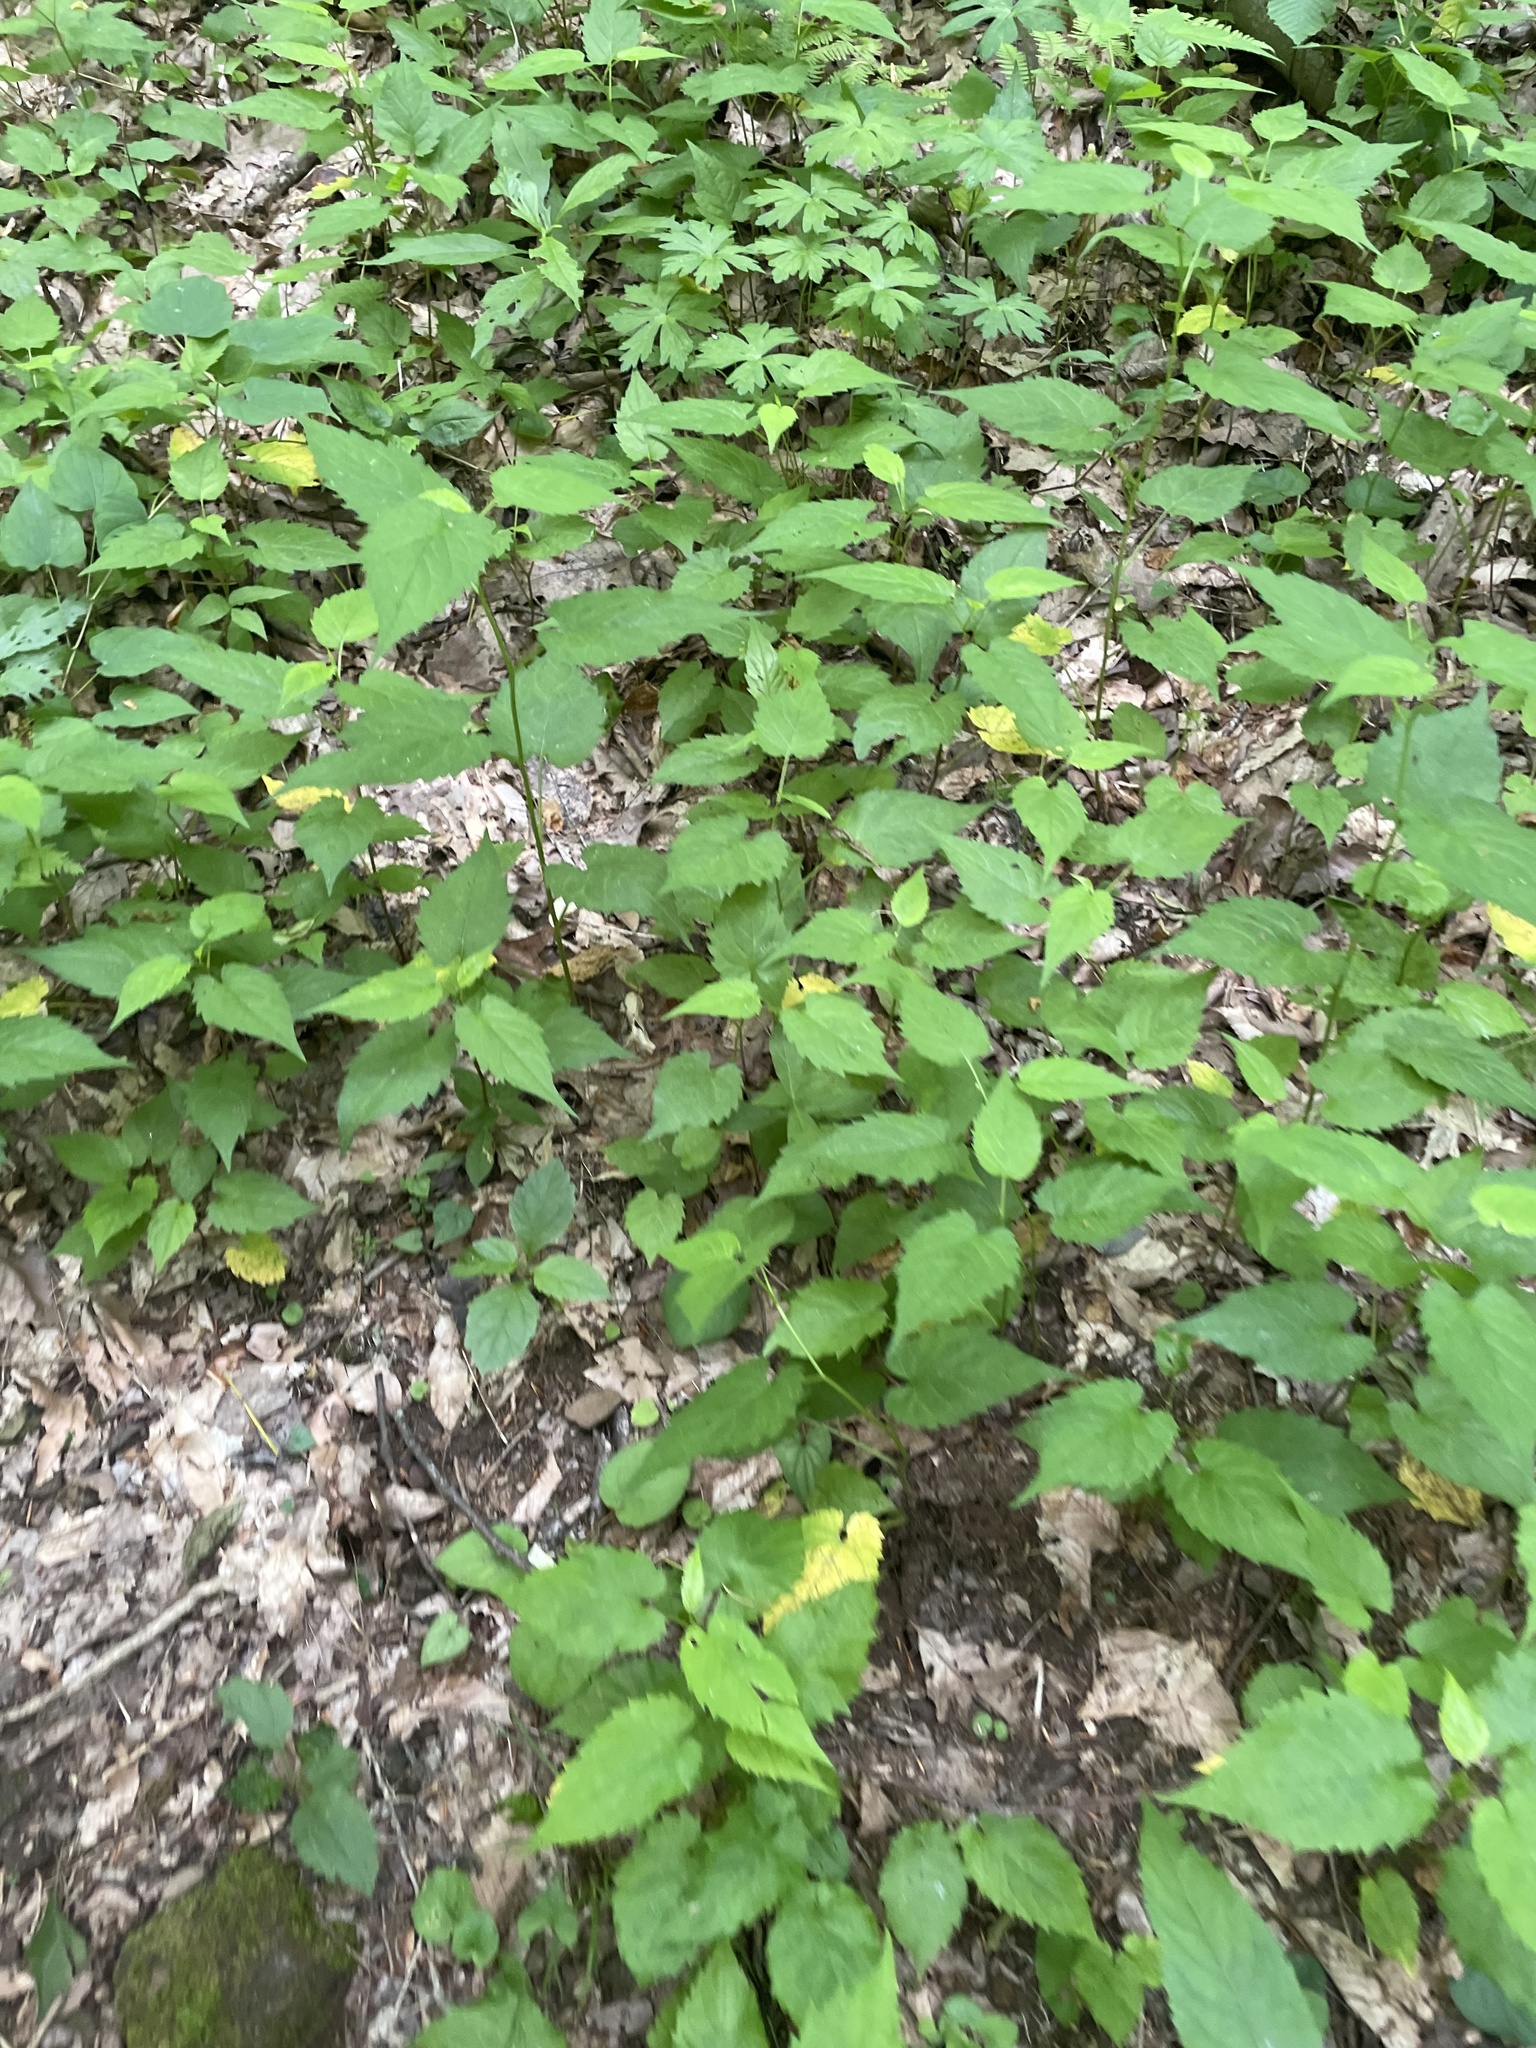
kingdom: Plantae
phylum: Tracheophyta
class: Magnoliopsida
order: Asterales
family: Asteraceae
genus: Eurybia
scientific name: Eurybia divaricata
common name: White wood aster
